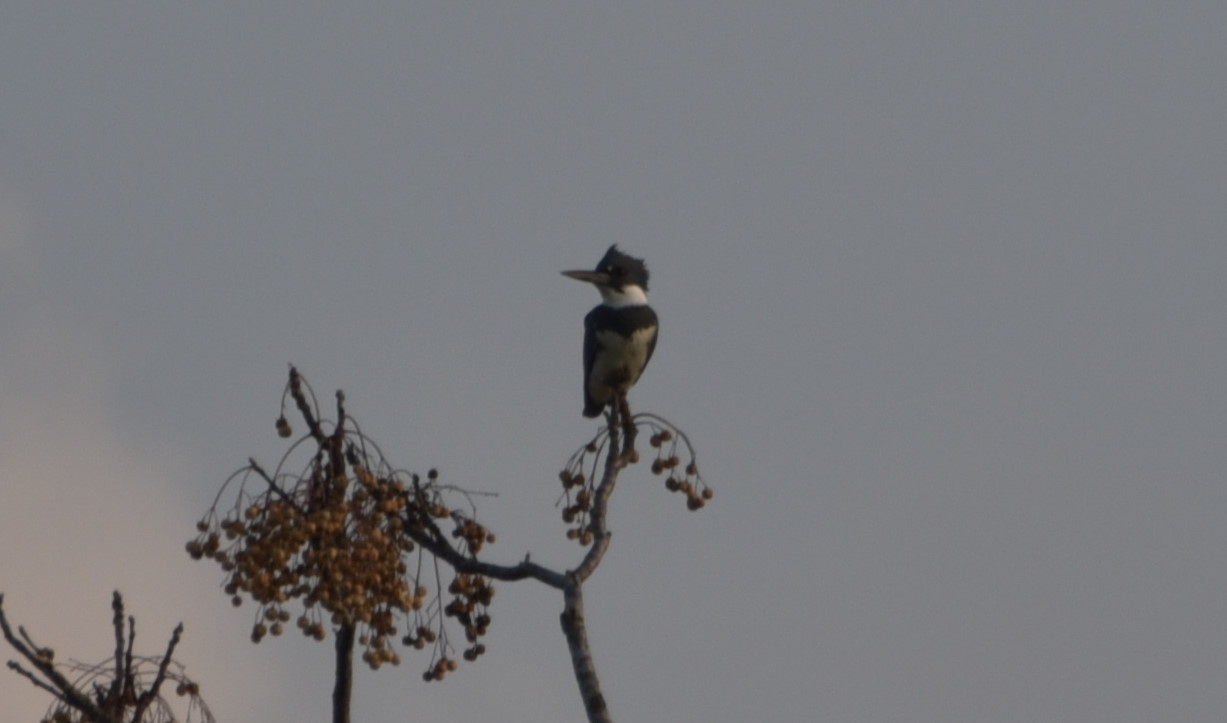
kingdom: Animalia
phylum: Chordata
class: Aves
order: Coraciiformes
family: Alcedinidae
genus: Megaceryle
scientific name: Megaceryle alcyon
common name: Belted kingfisher
